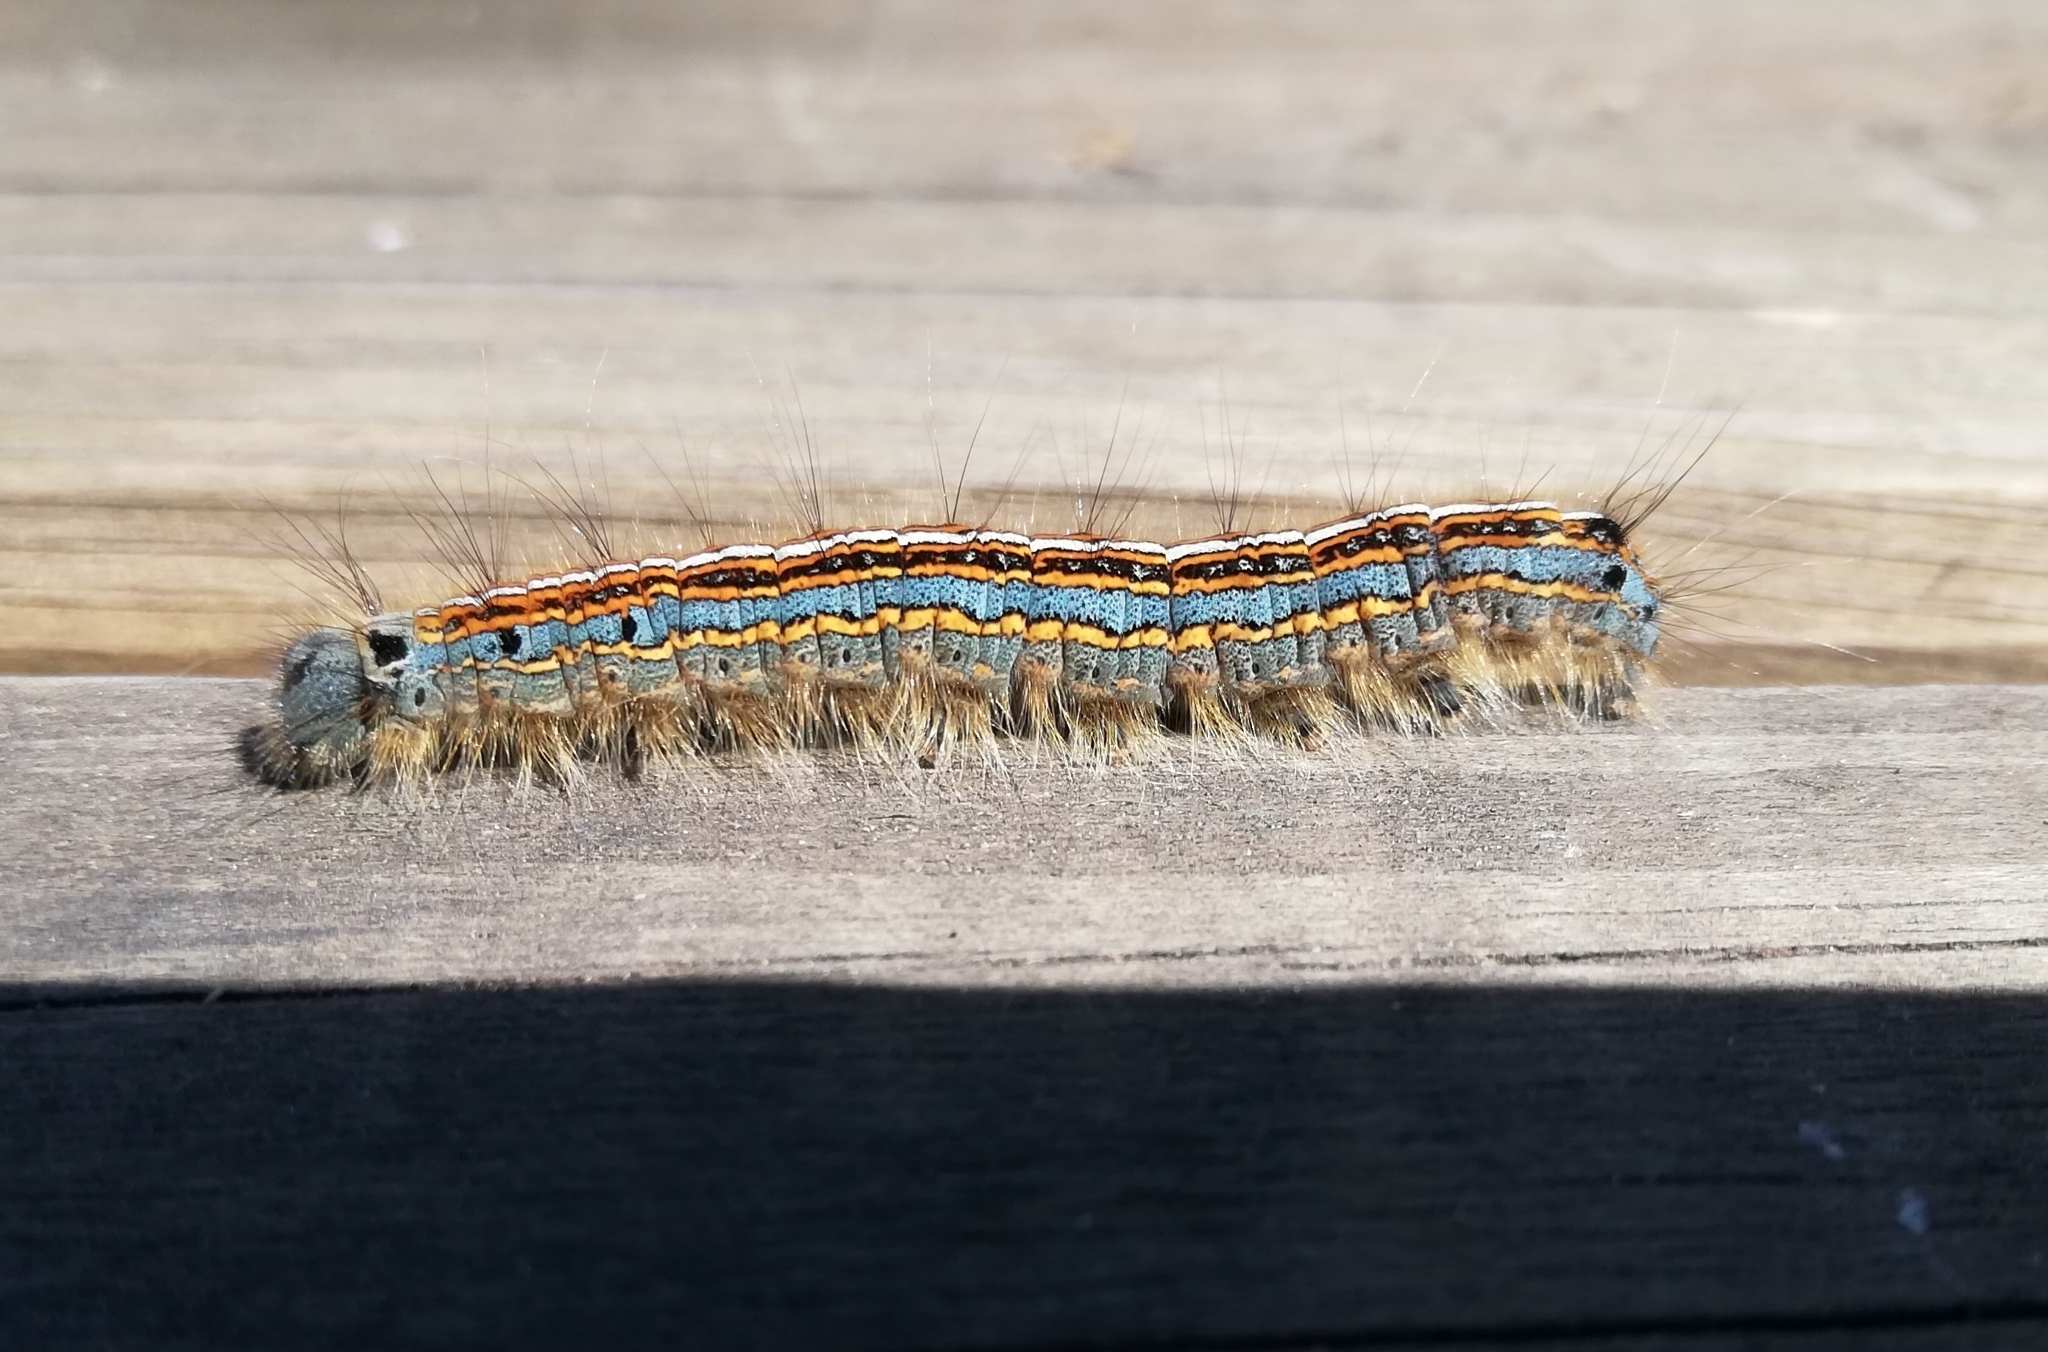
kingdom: Animalia
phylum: Arthropoda
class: Insecta
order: Lepidoptera
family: Lasiocampidae
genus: Malacosoma
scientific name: Malacosoma neustria
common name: The lackey
